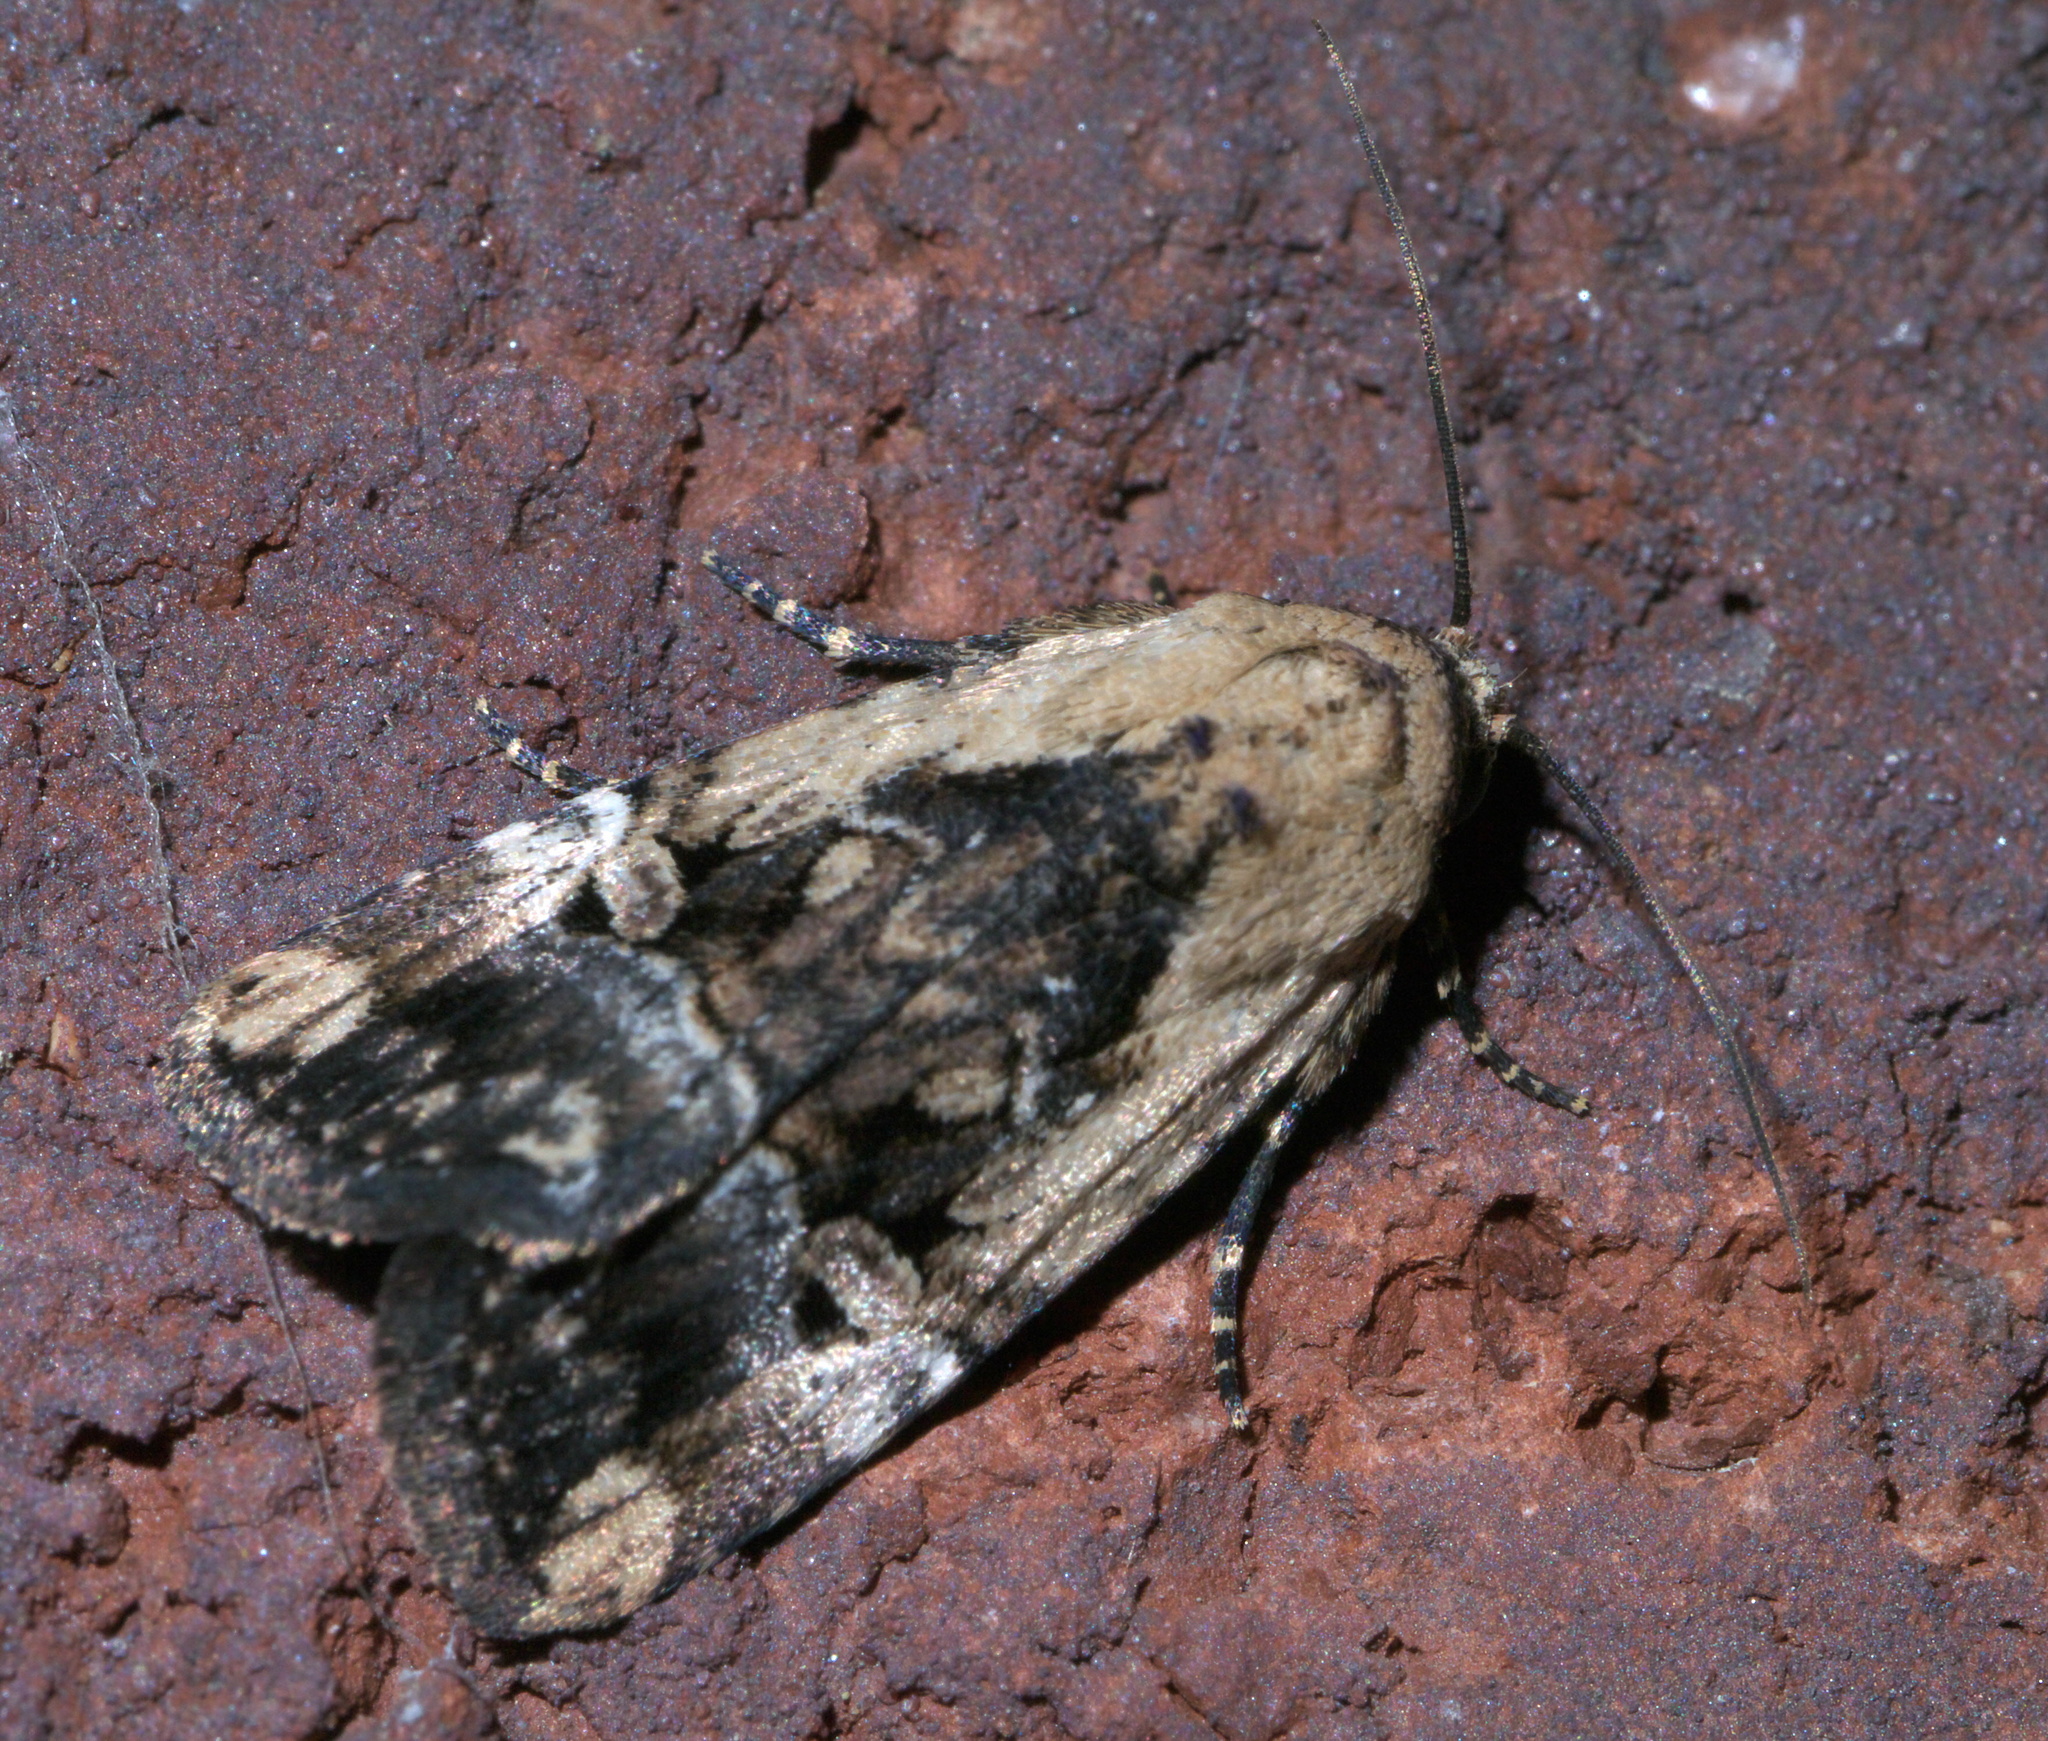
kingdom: Animalia
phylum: Arthropoda
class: Insecta
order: Lepidoptera
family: Noctuidae
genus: Elaphria
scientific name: Elaphria chalcedonia
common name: Chalcedony midget
